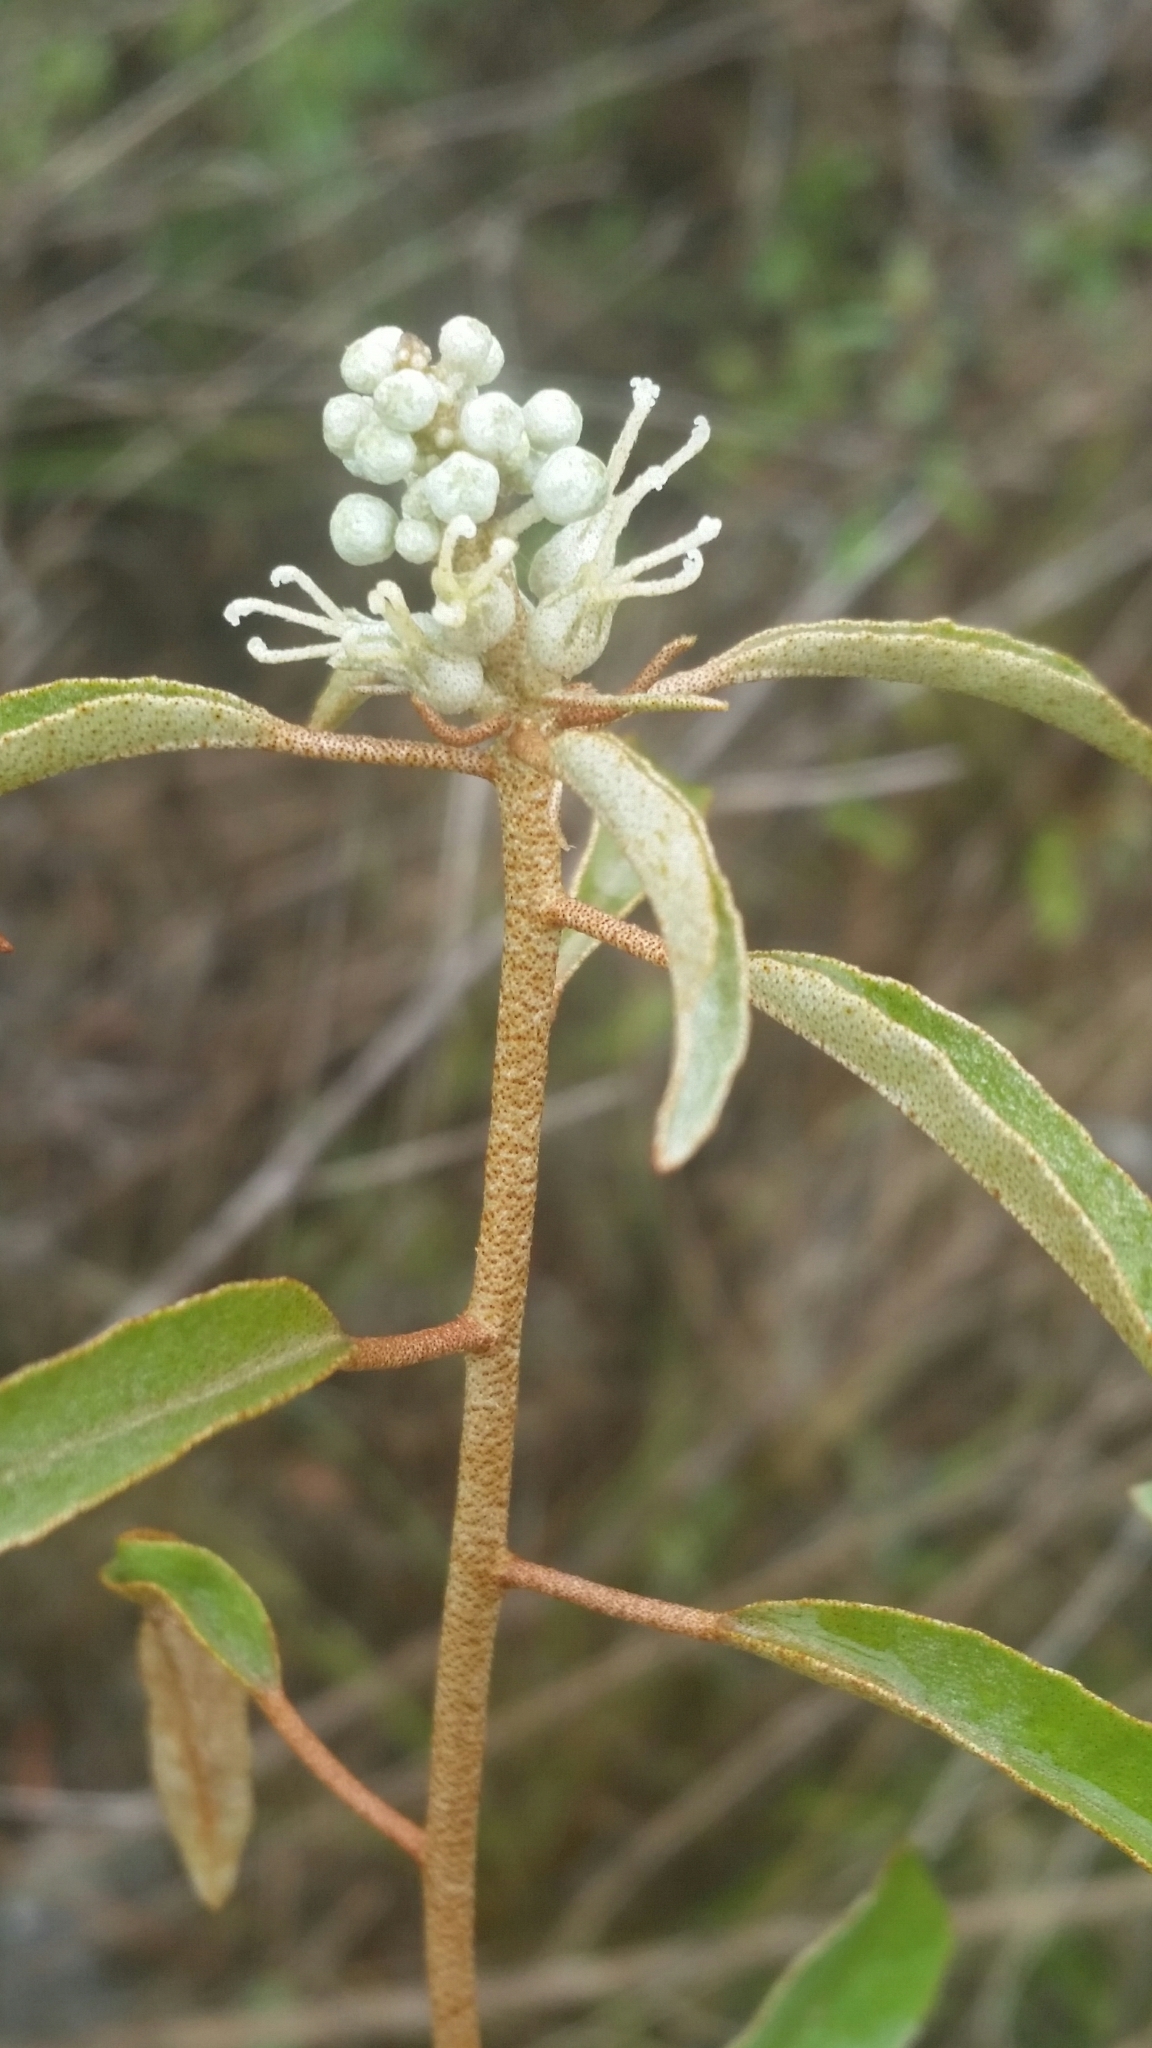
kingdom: Plantae
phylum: Tracheophyta
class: Magnoliopsida
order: Malpighiales
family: Euphorbiaceae
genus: Croton
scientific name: Croton argyranthemus
